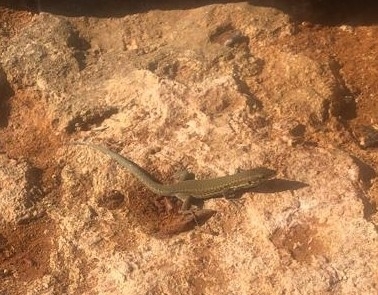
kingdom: Animalia
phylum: Chordata
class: Squamata
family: Lacertidae
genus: Podarcis
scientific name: Podarcis filfolensis
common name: Maltese wall lizard
